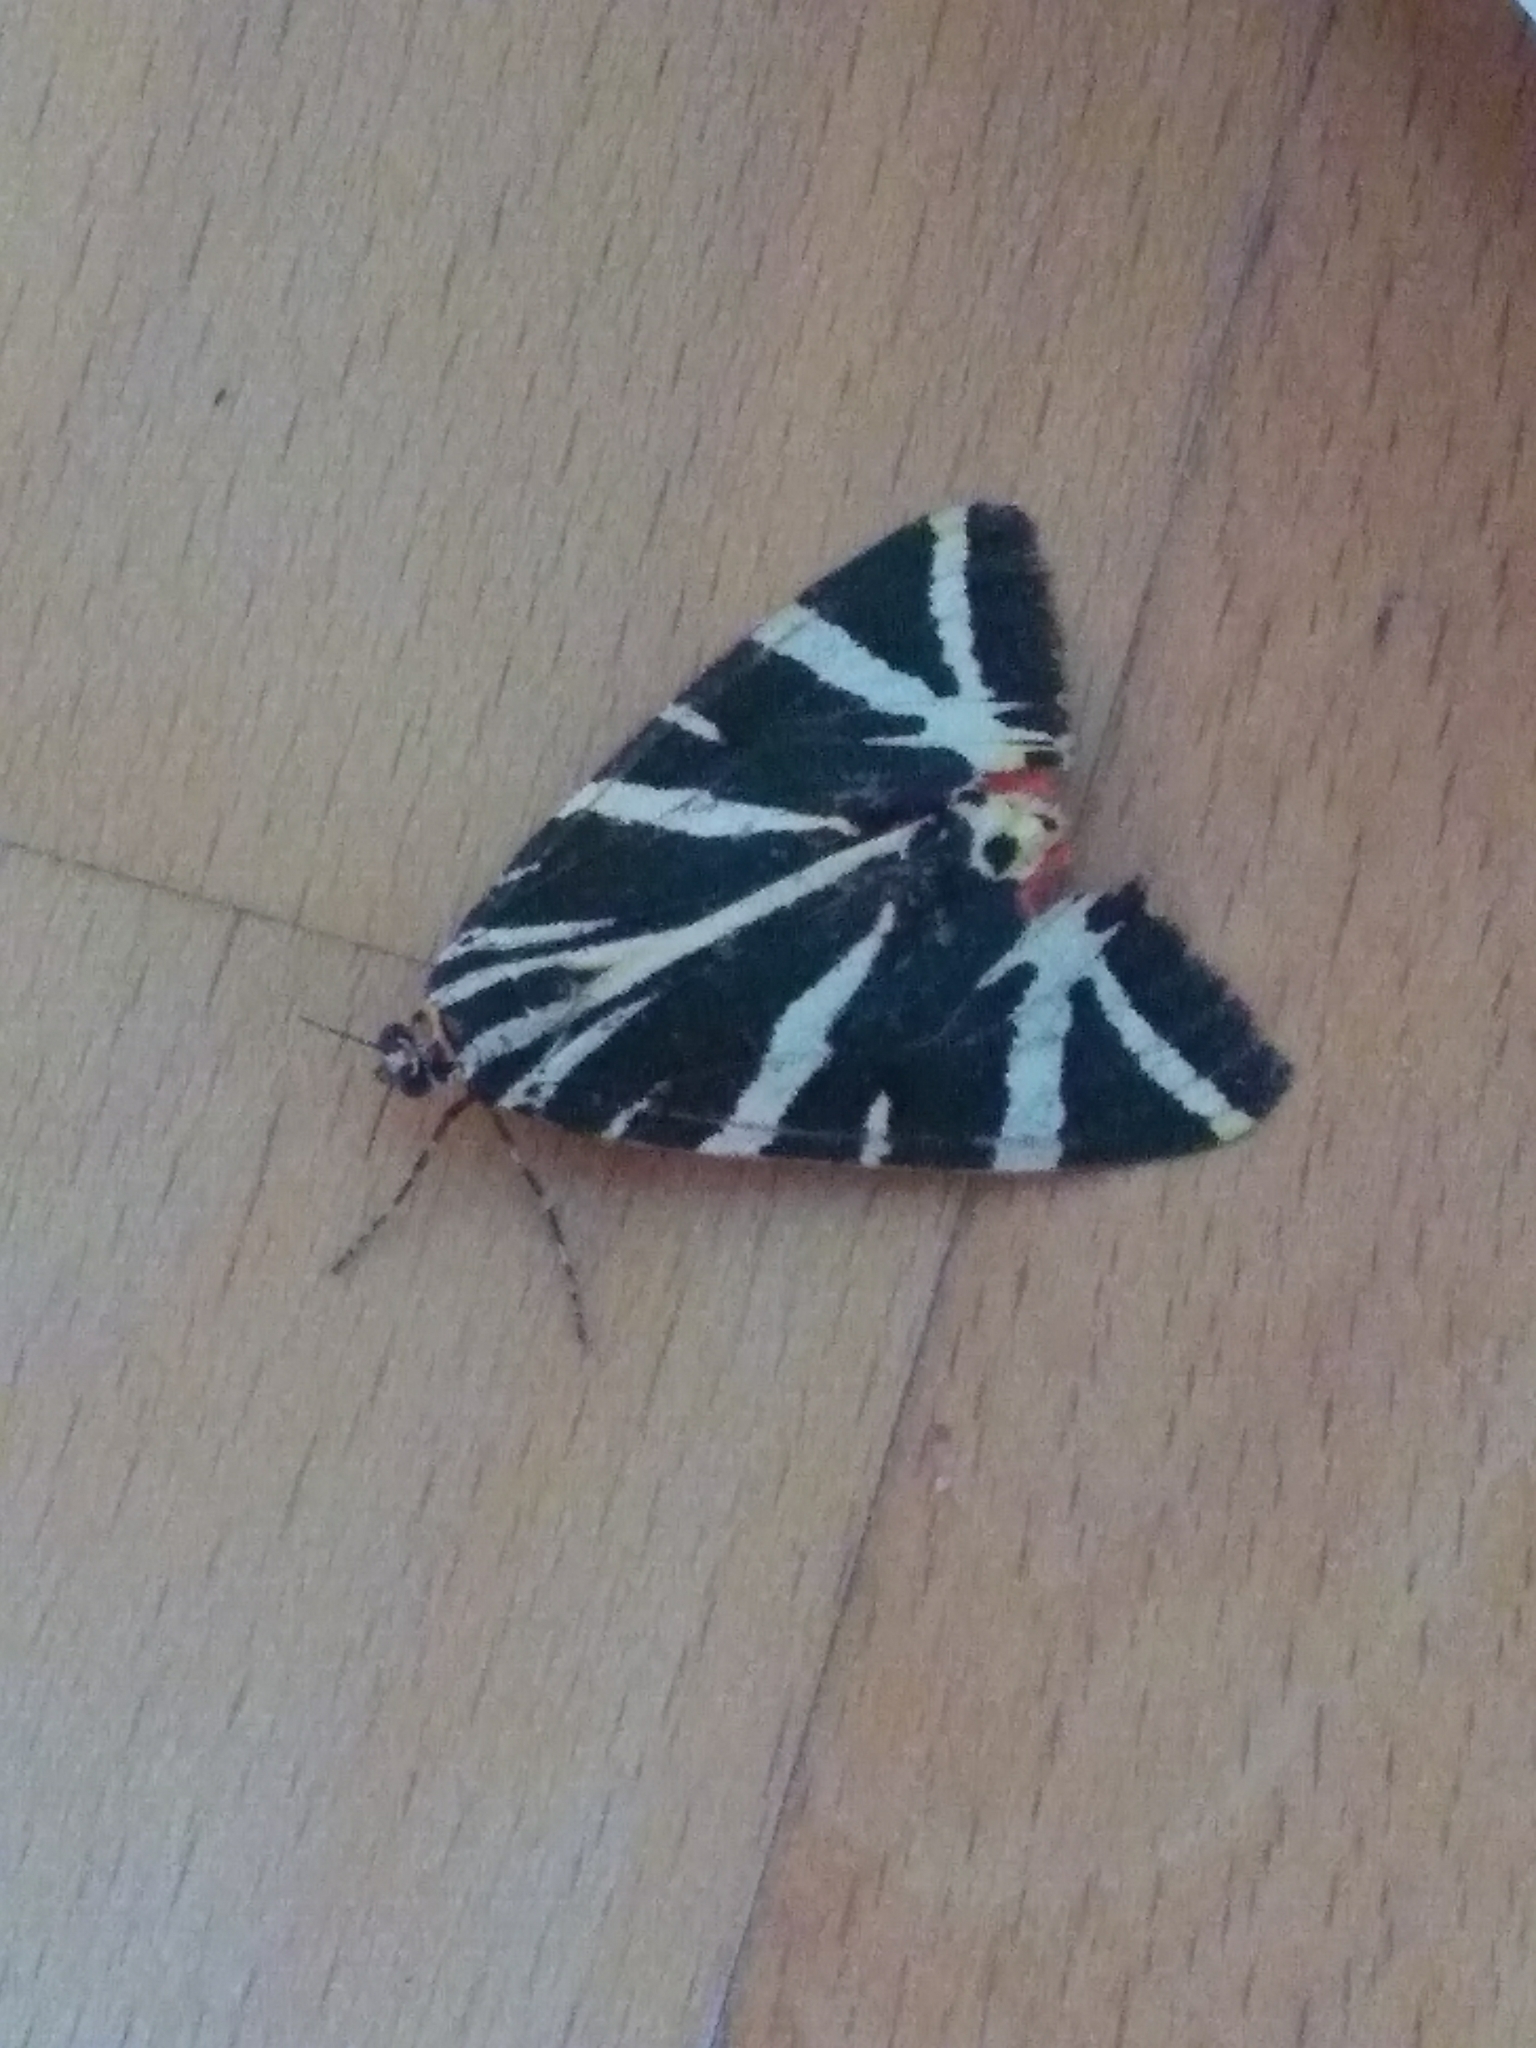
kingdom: Animalia
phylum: Arthropoda
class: Insecta
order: Lepidoptera
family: Erebidae
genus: Euplagia
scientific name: Euplagia quadripunctaria
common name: Jersey tiger
